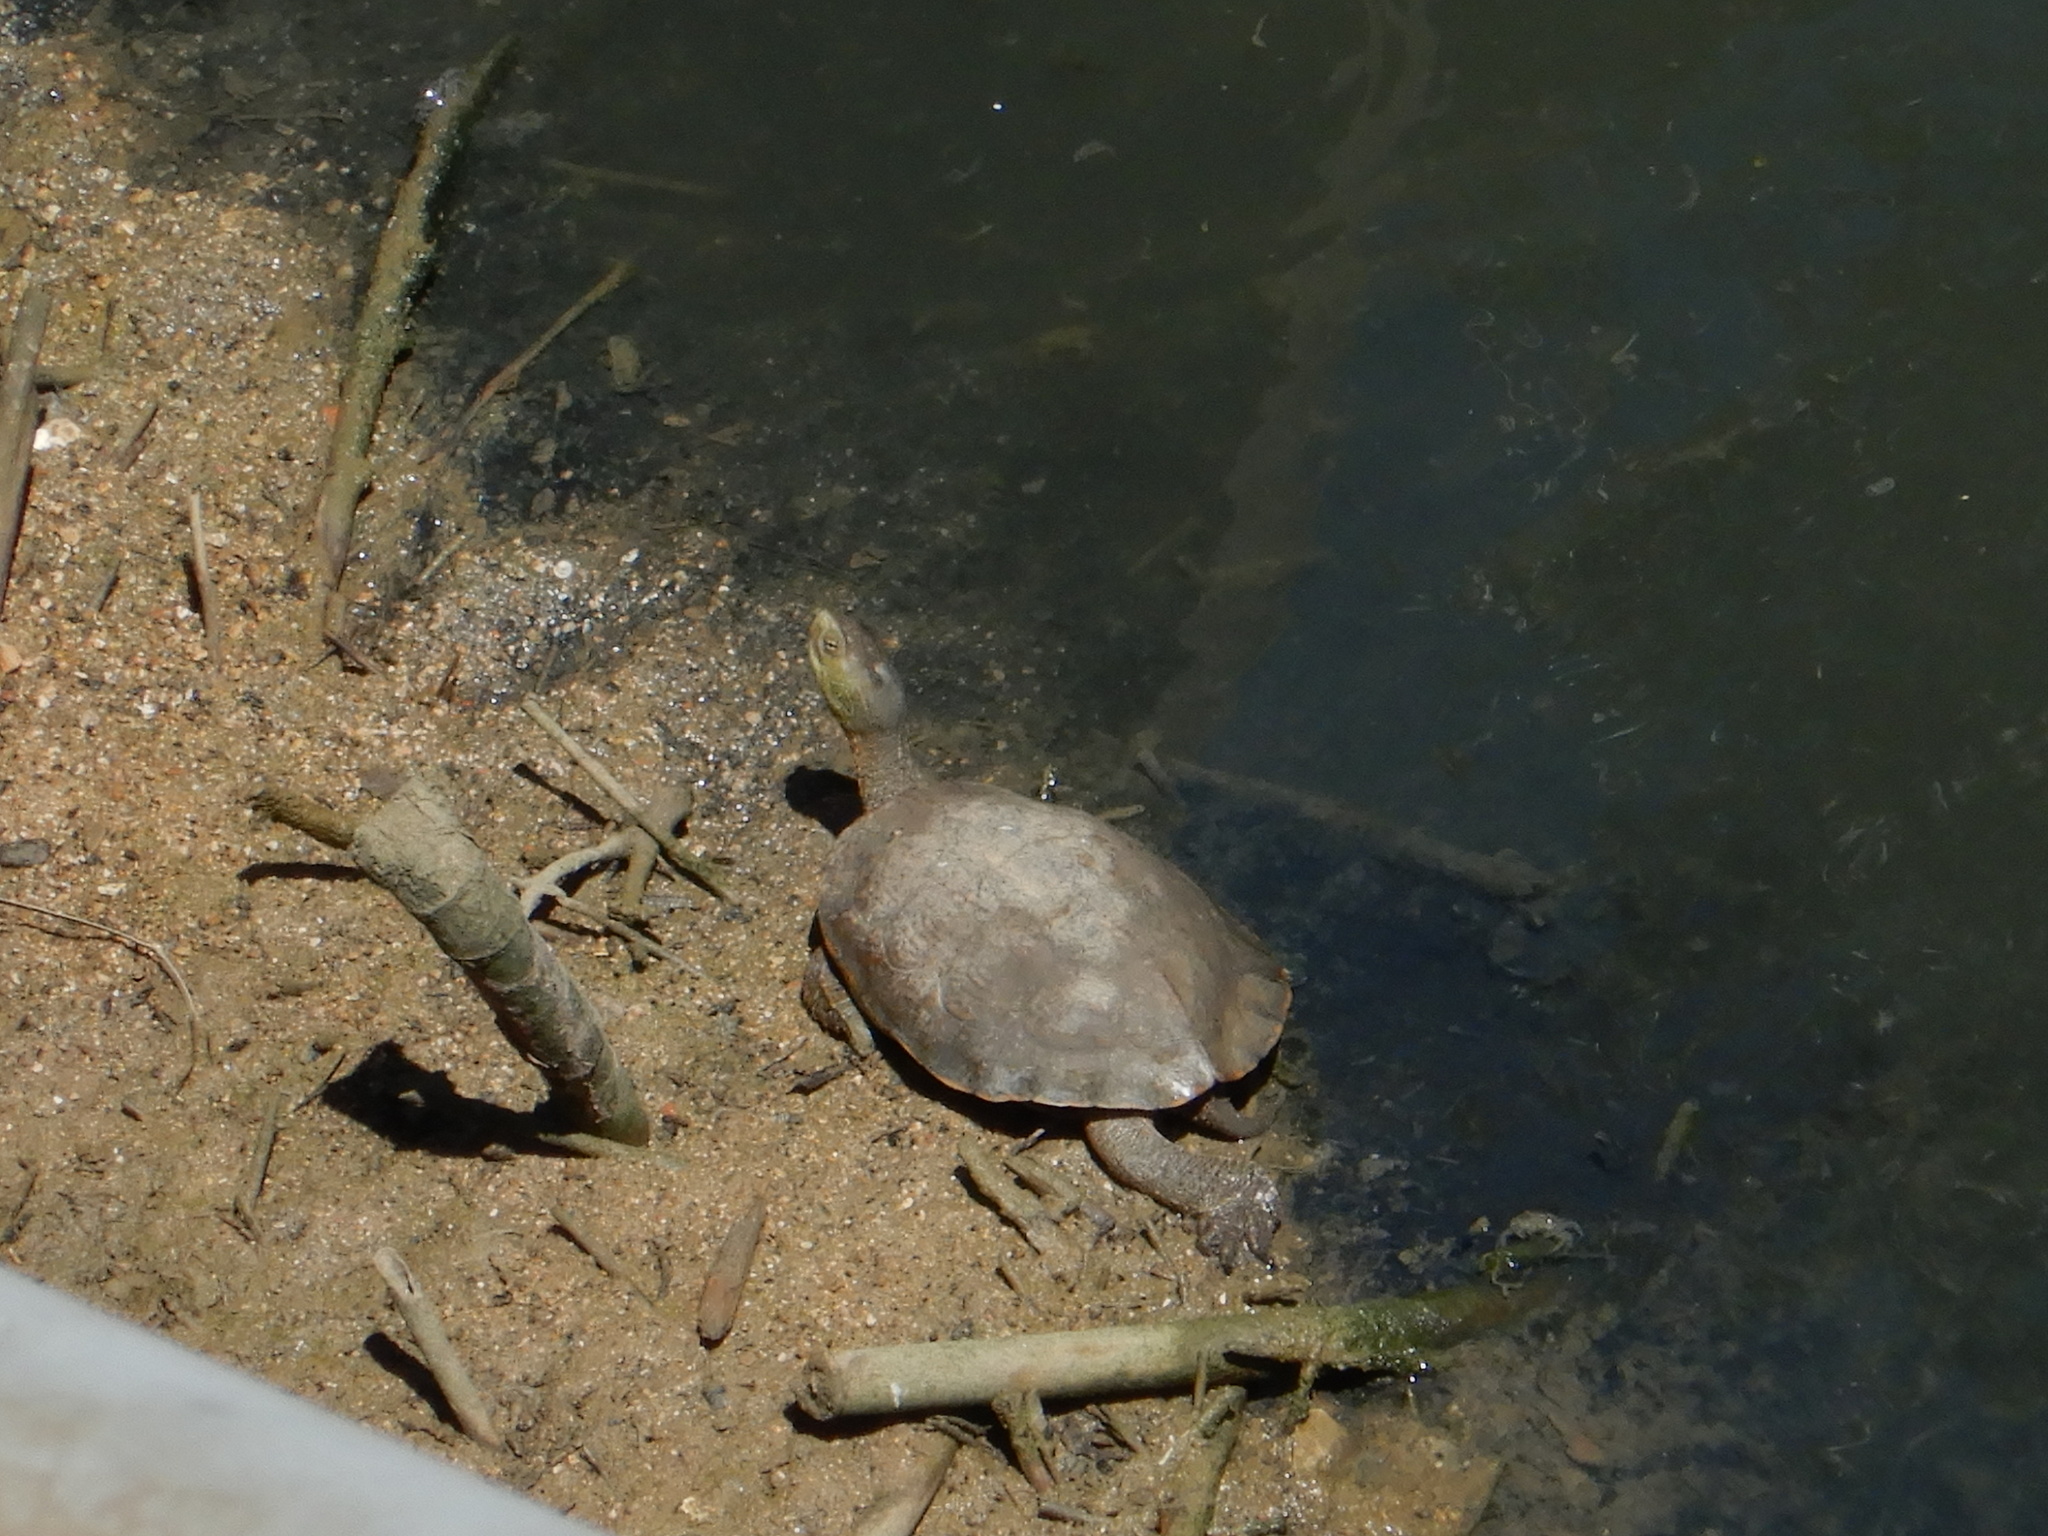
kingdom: Animalia
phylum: Chordata
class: Testudines
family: Geoemydidae
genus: Mauremys
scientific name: Mauremys leprosa
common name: Mediterranean pond turtle
